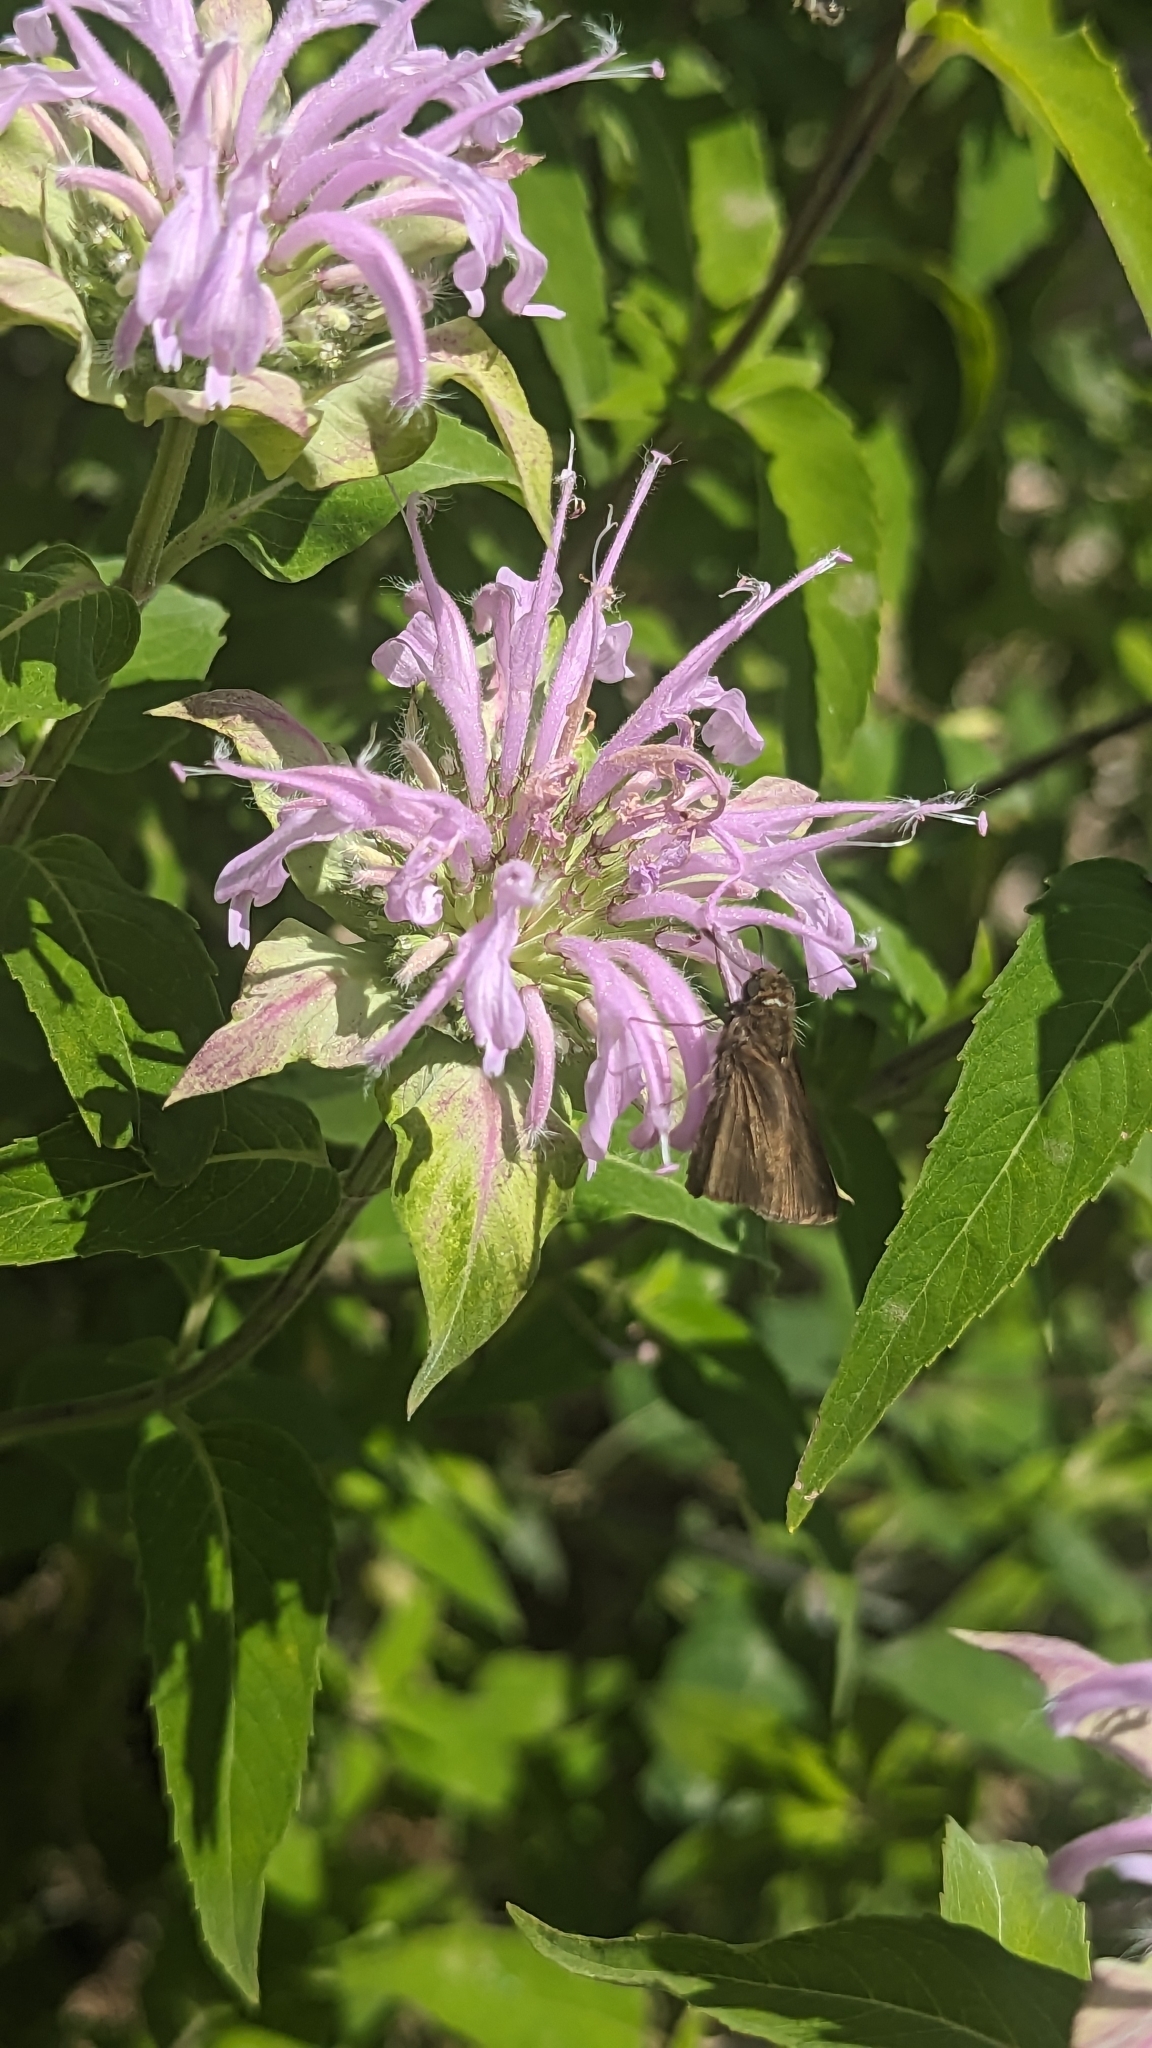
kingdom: Animalia
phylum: Arthropoda
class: Insecta
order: Lepidoptera
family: Hesperiidae
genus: Euphyes
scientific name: Euphyes vestris
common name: Dun skipper
